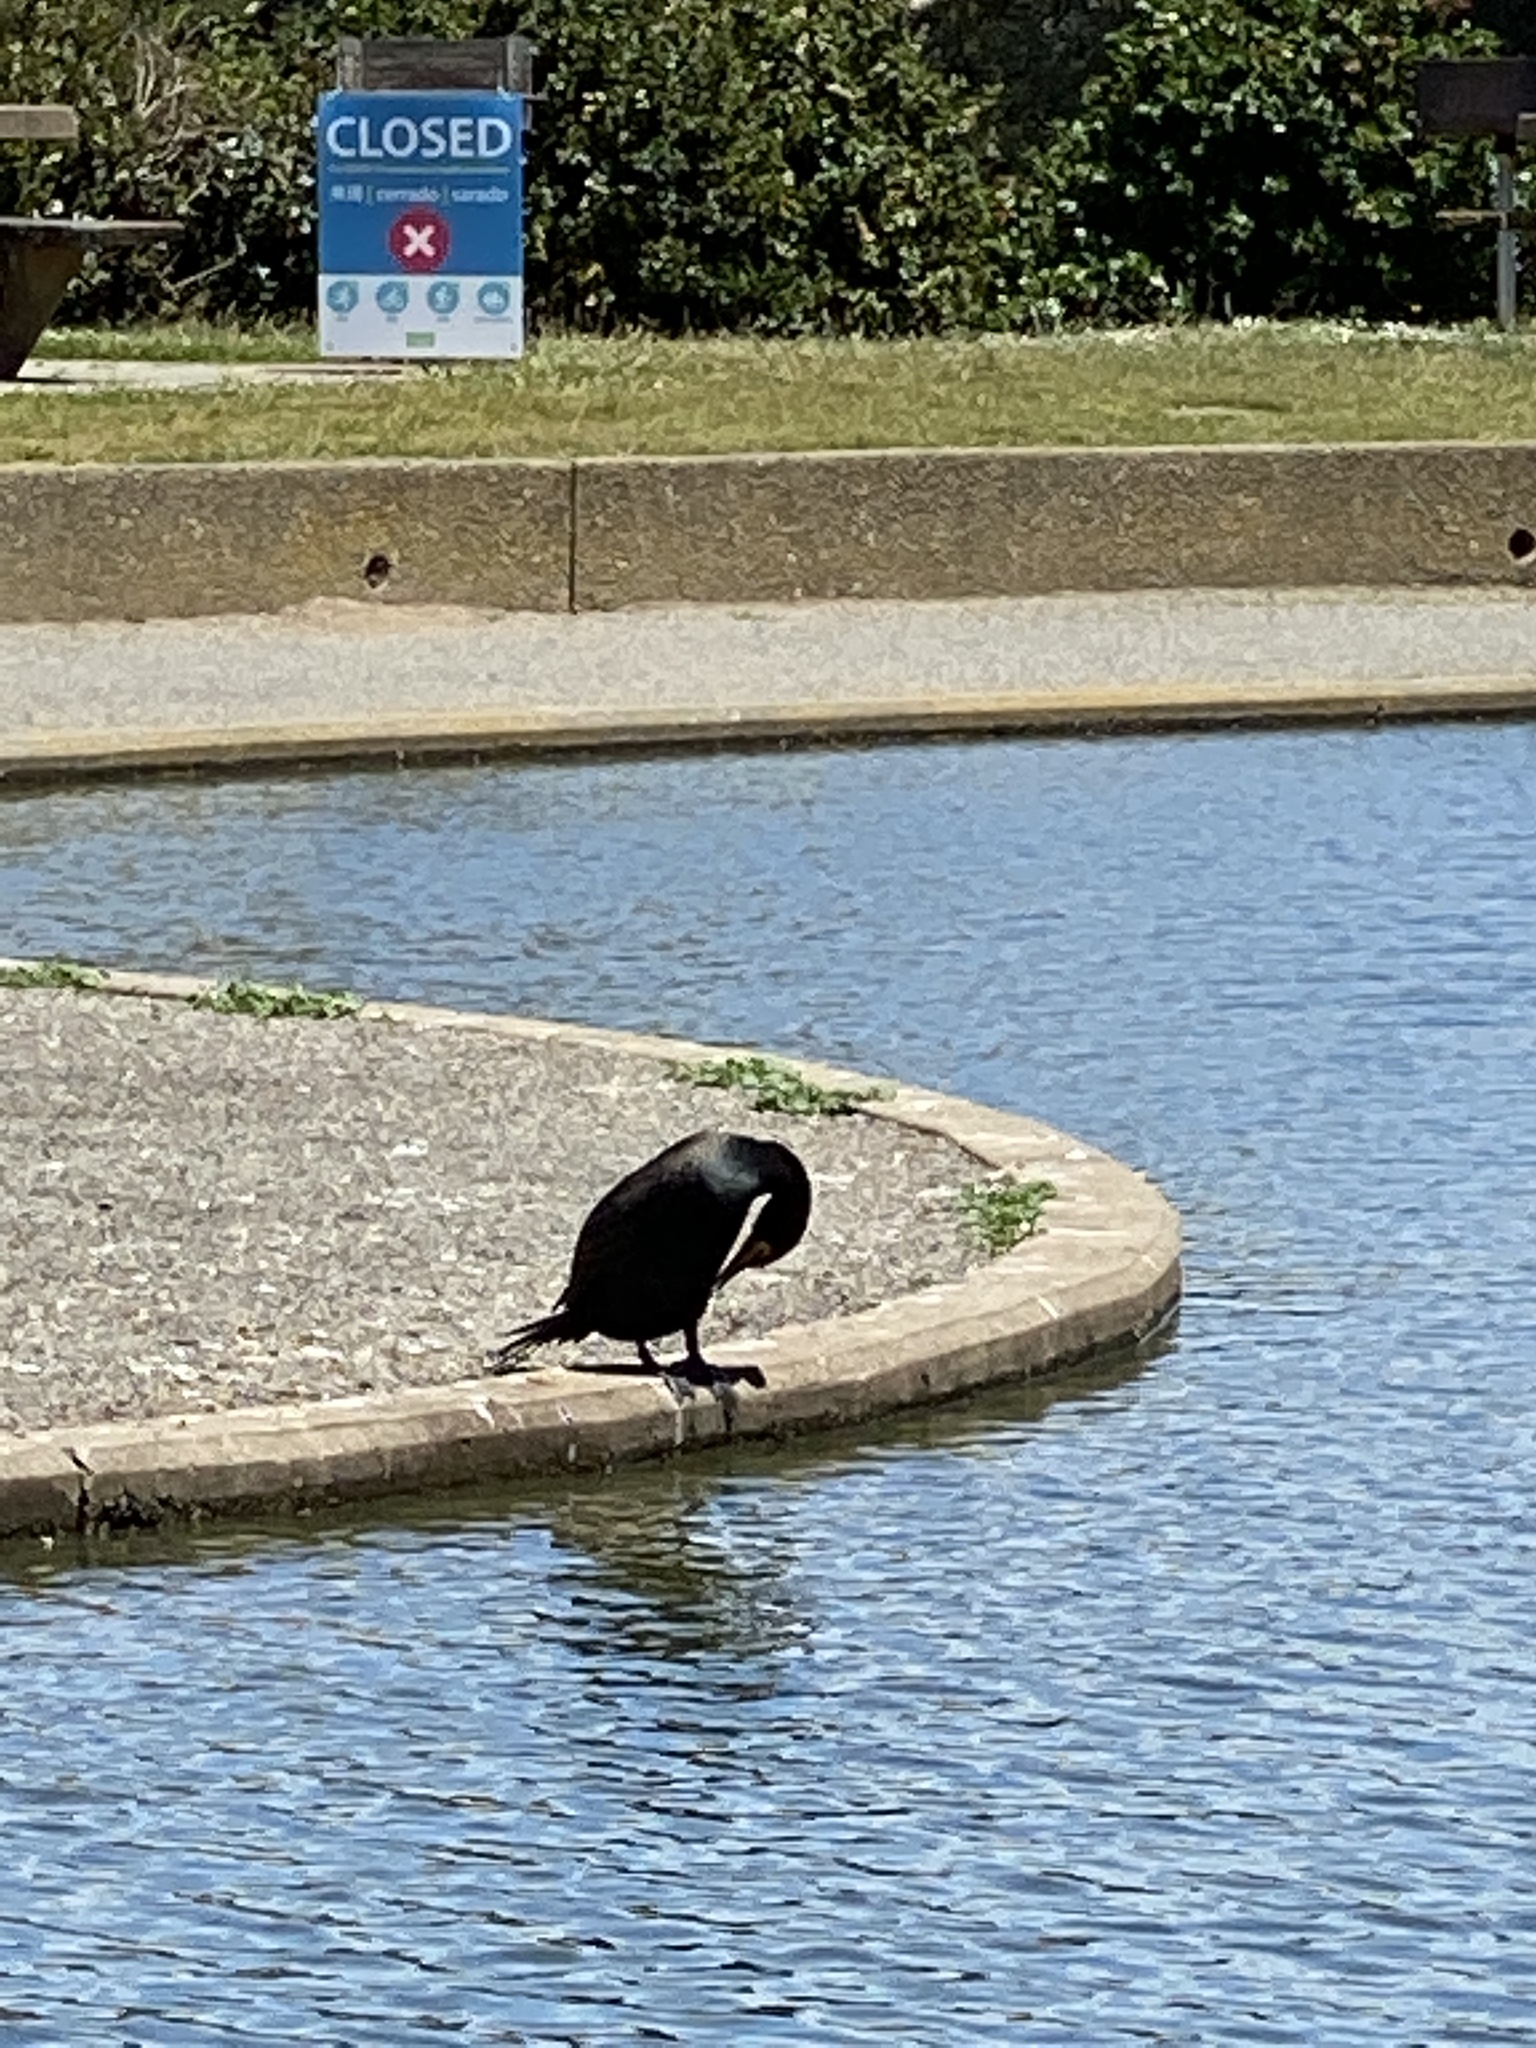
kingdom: Animalia
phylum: Chordata
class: Aves
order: Suliformes
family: Phalacrocoracidae
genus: Phalacrocorax
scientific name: Phalacrocorax auritus
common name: Double-crested cormorant
